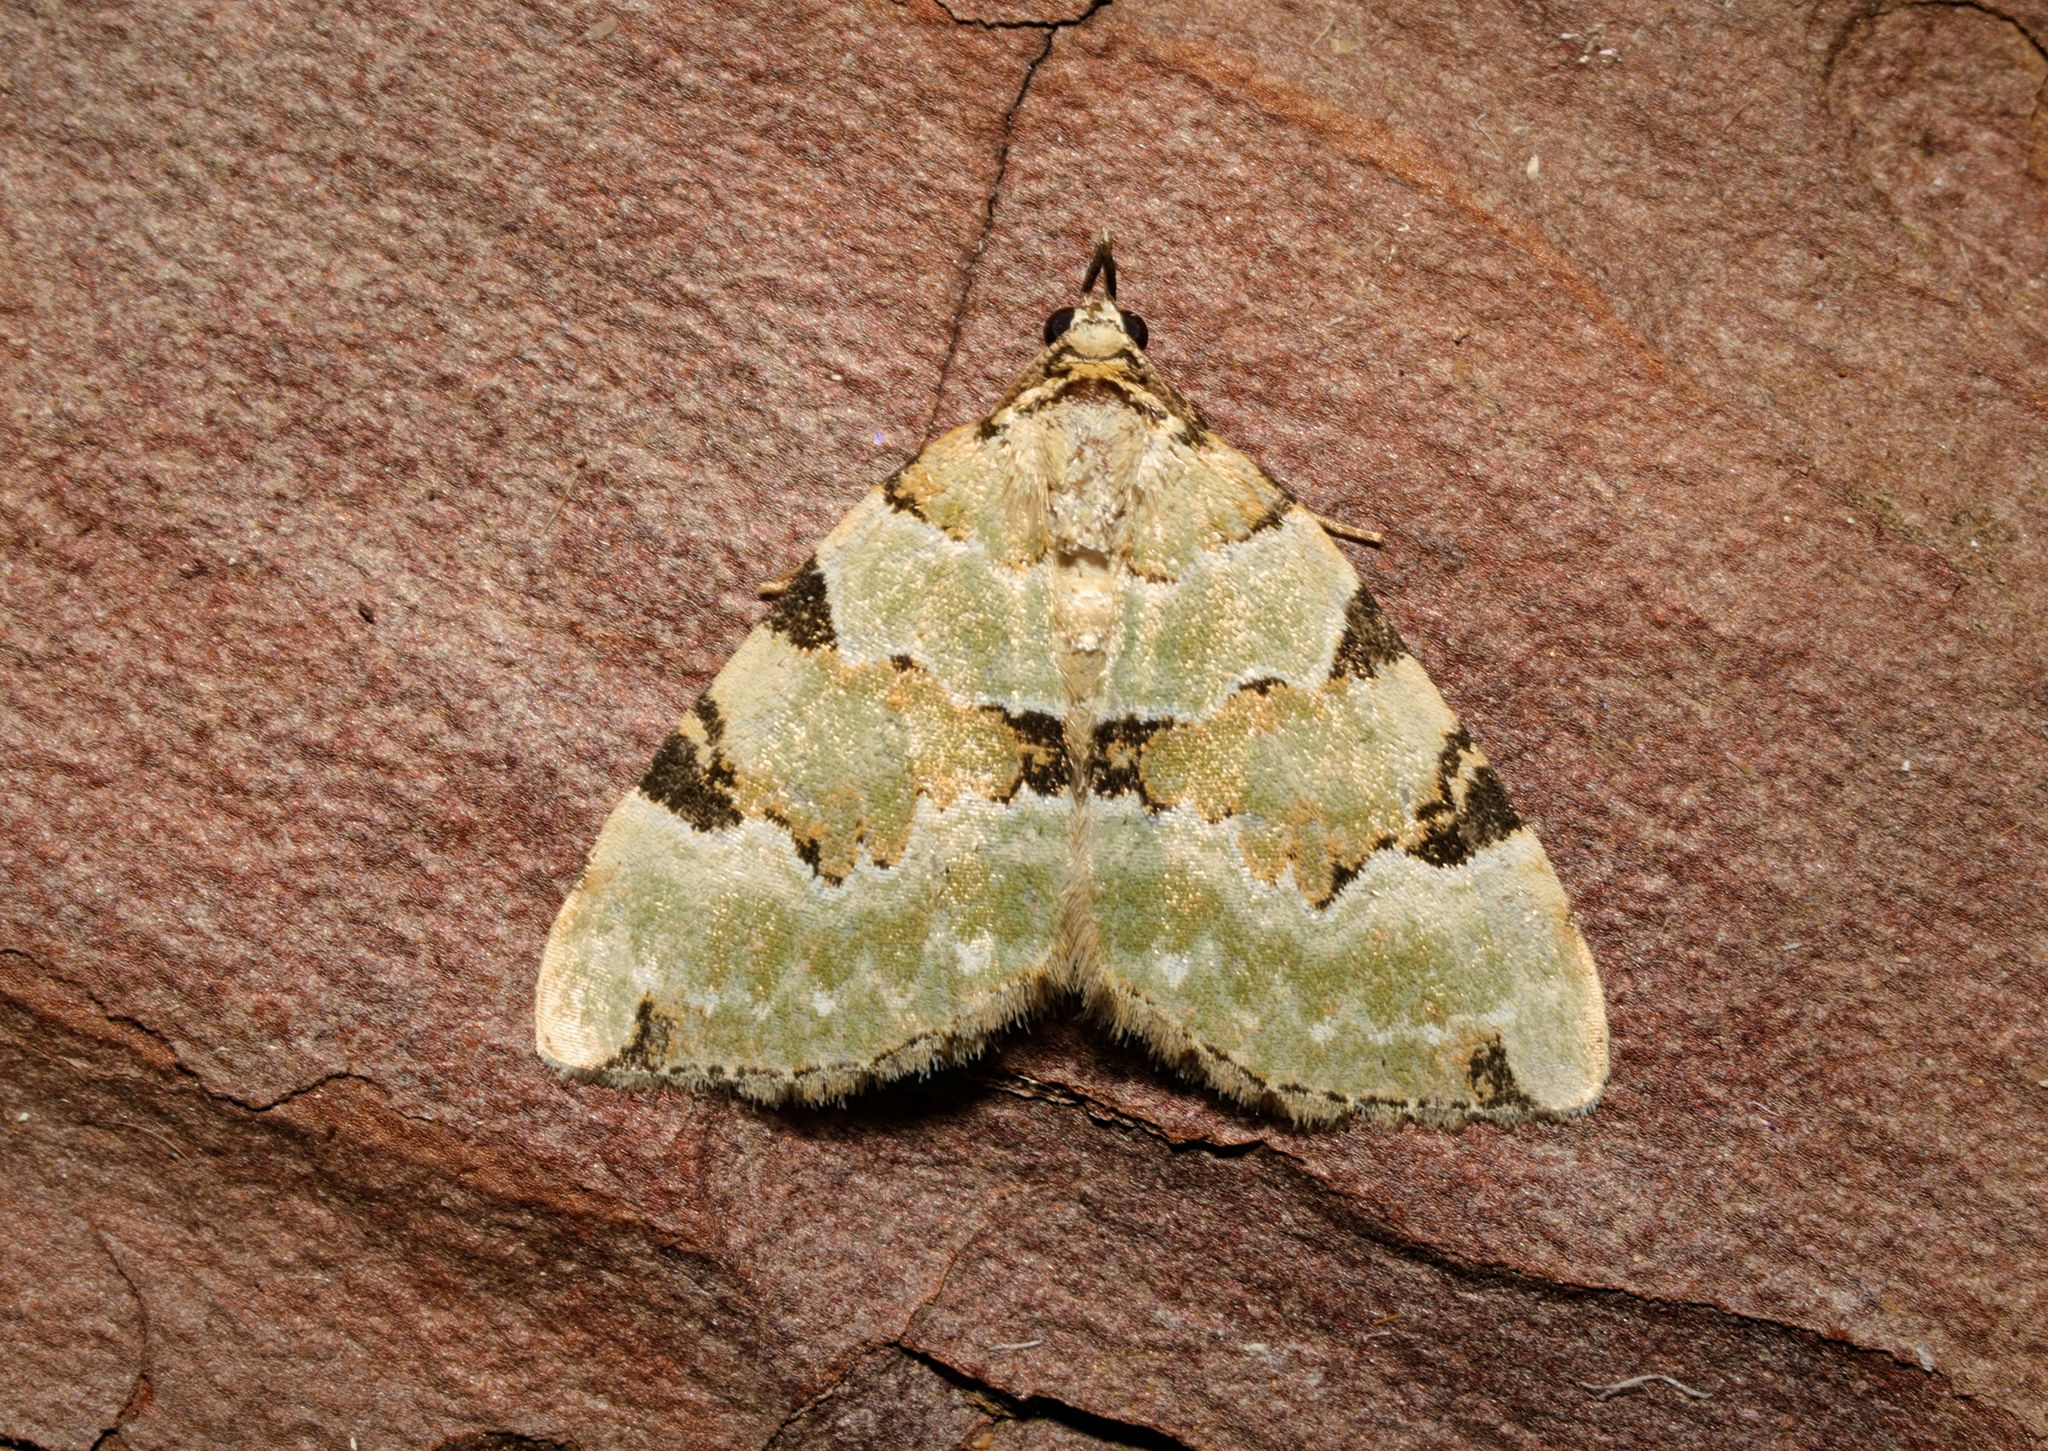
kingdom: Animalia
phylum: Arthropoda
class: Insecta
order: Lepidoptera
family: Geometridae
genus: Colostygia
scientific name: Colostygia pectinataria
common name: Green carpet
